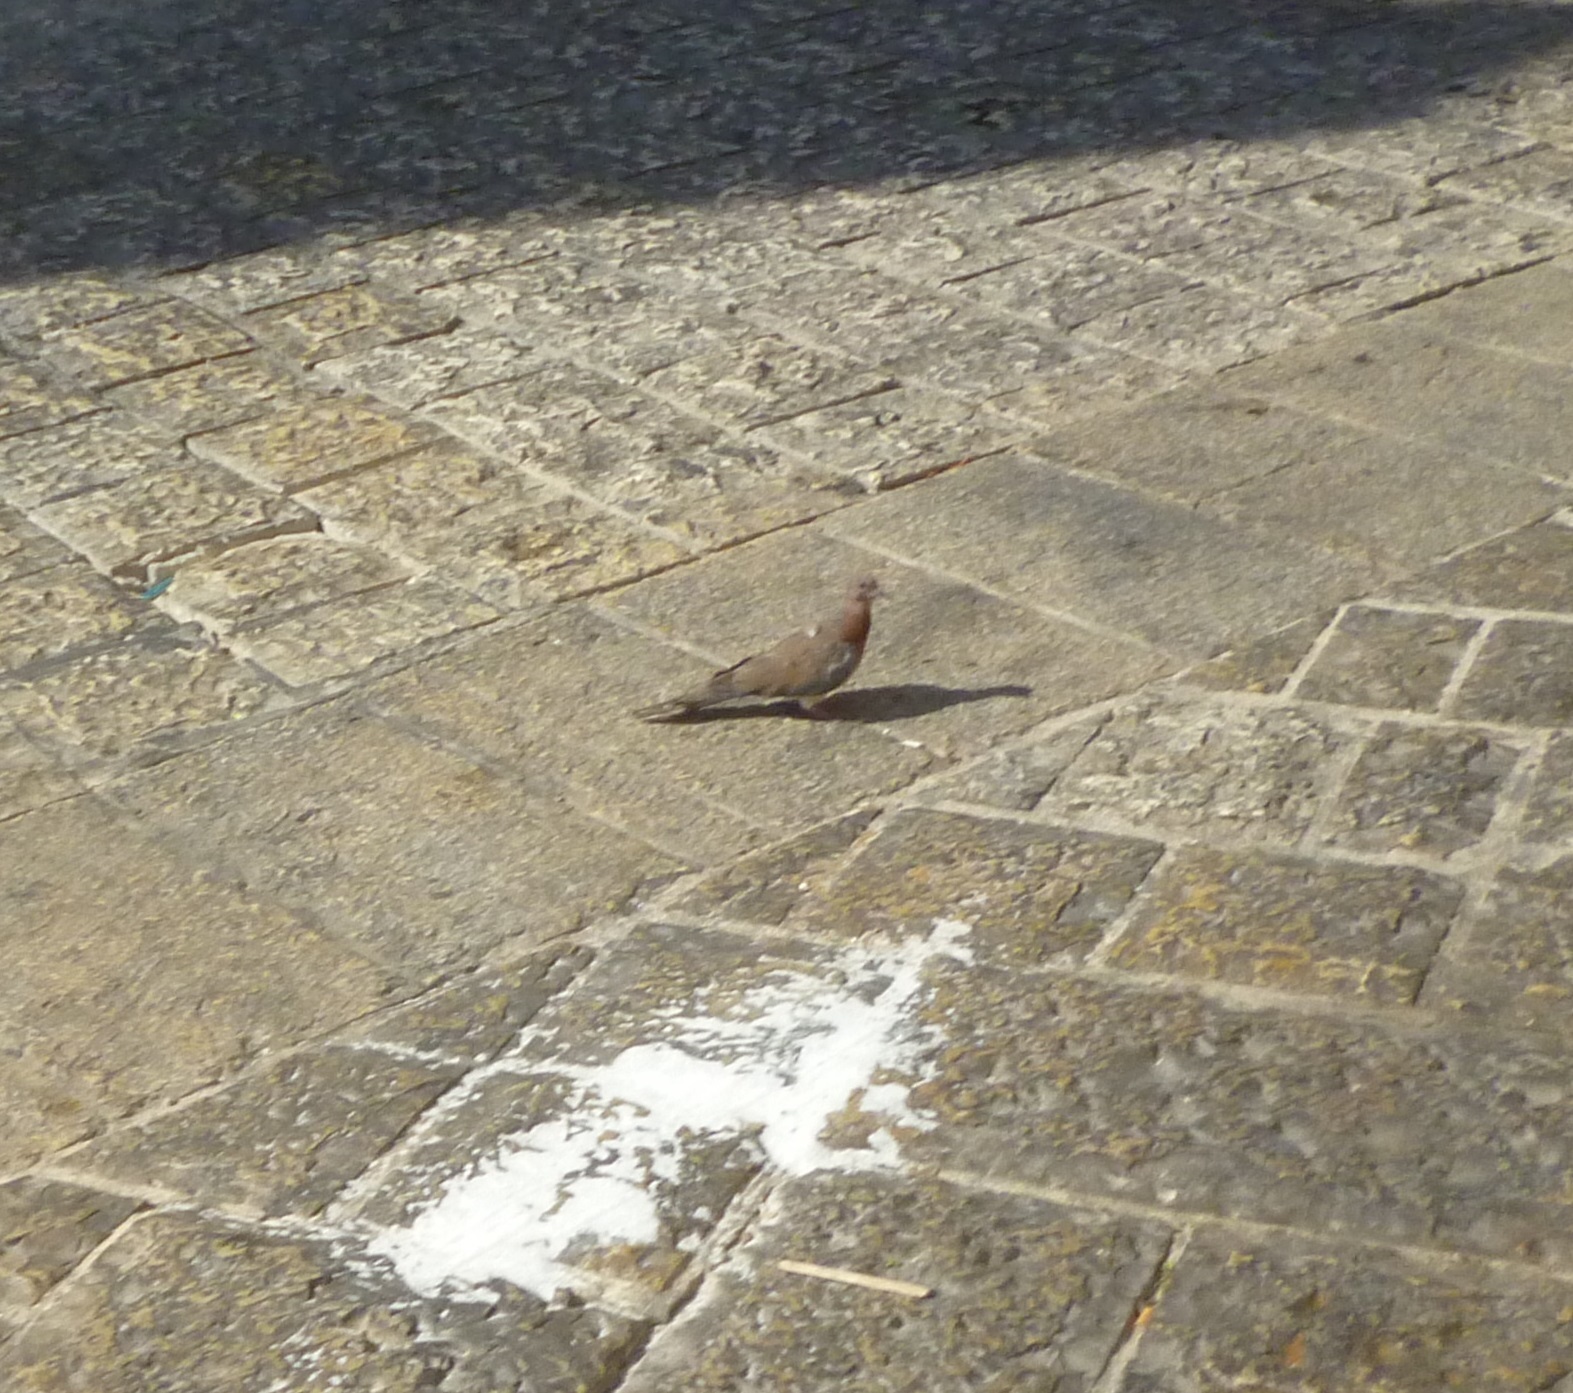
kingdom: Animalia
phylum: Chordata
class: Aves
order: Columbiformes
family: Columbidae
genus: Spilopelia
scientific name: Spilopelia senegalensis
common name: Laughing dove
